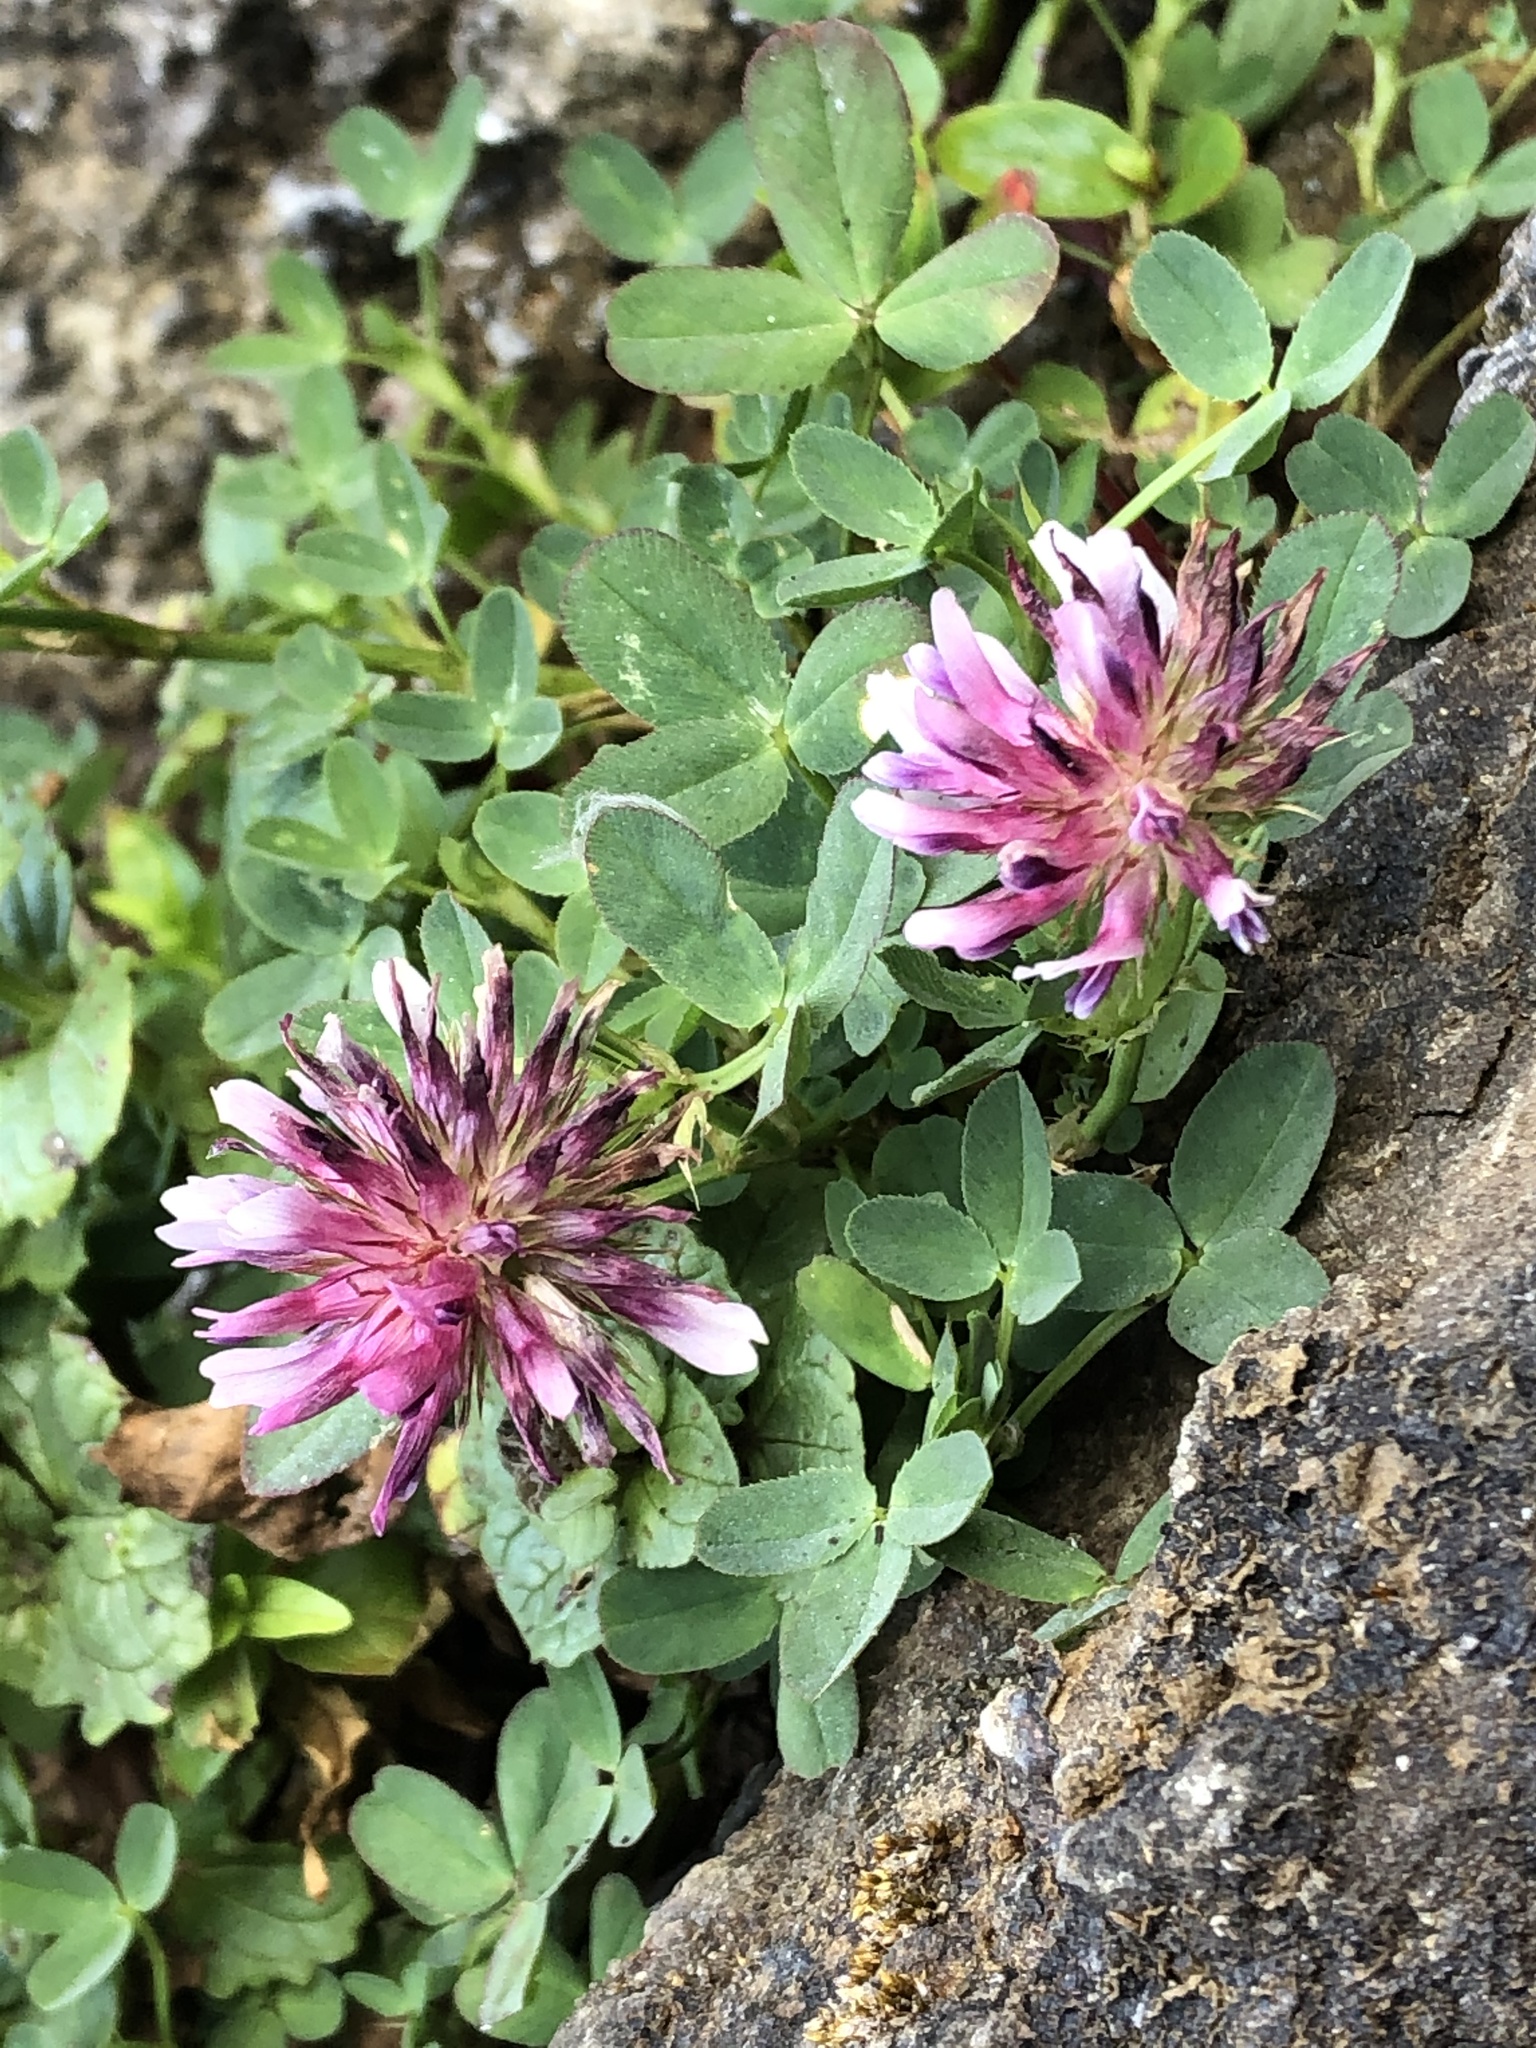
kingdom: Plantae
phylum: Tracheophyta
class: Magnoliopsida
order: Fabales
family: Fabaceae
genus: Trifolium
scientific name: Trifolium wormskioldii
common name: Springbank clover
